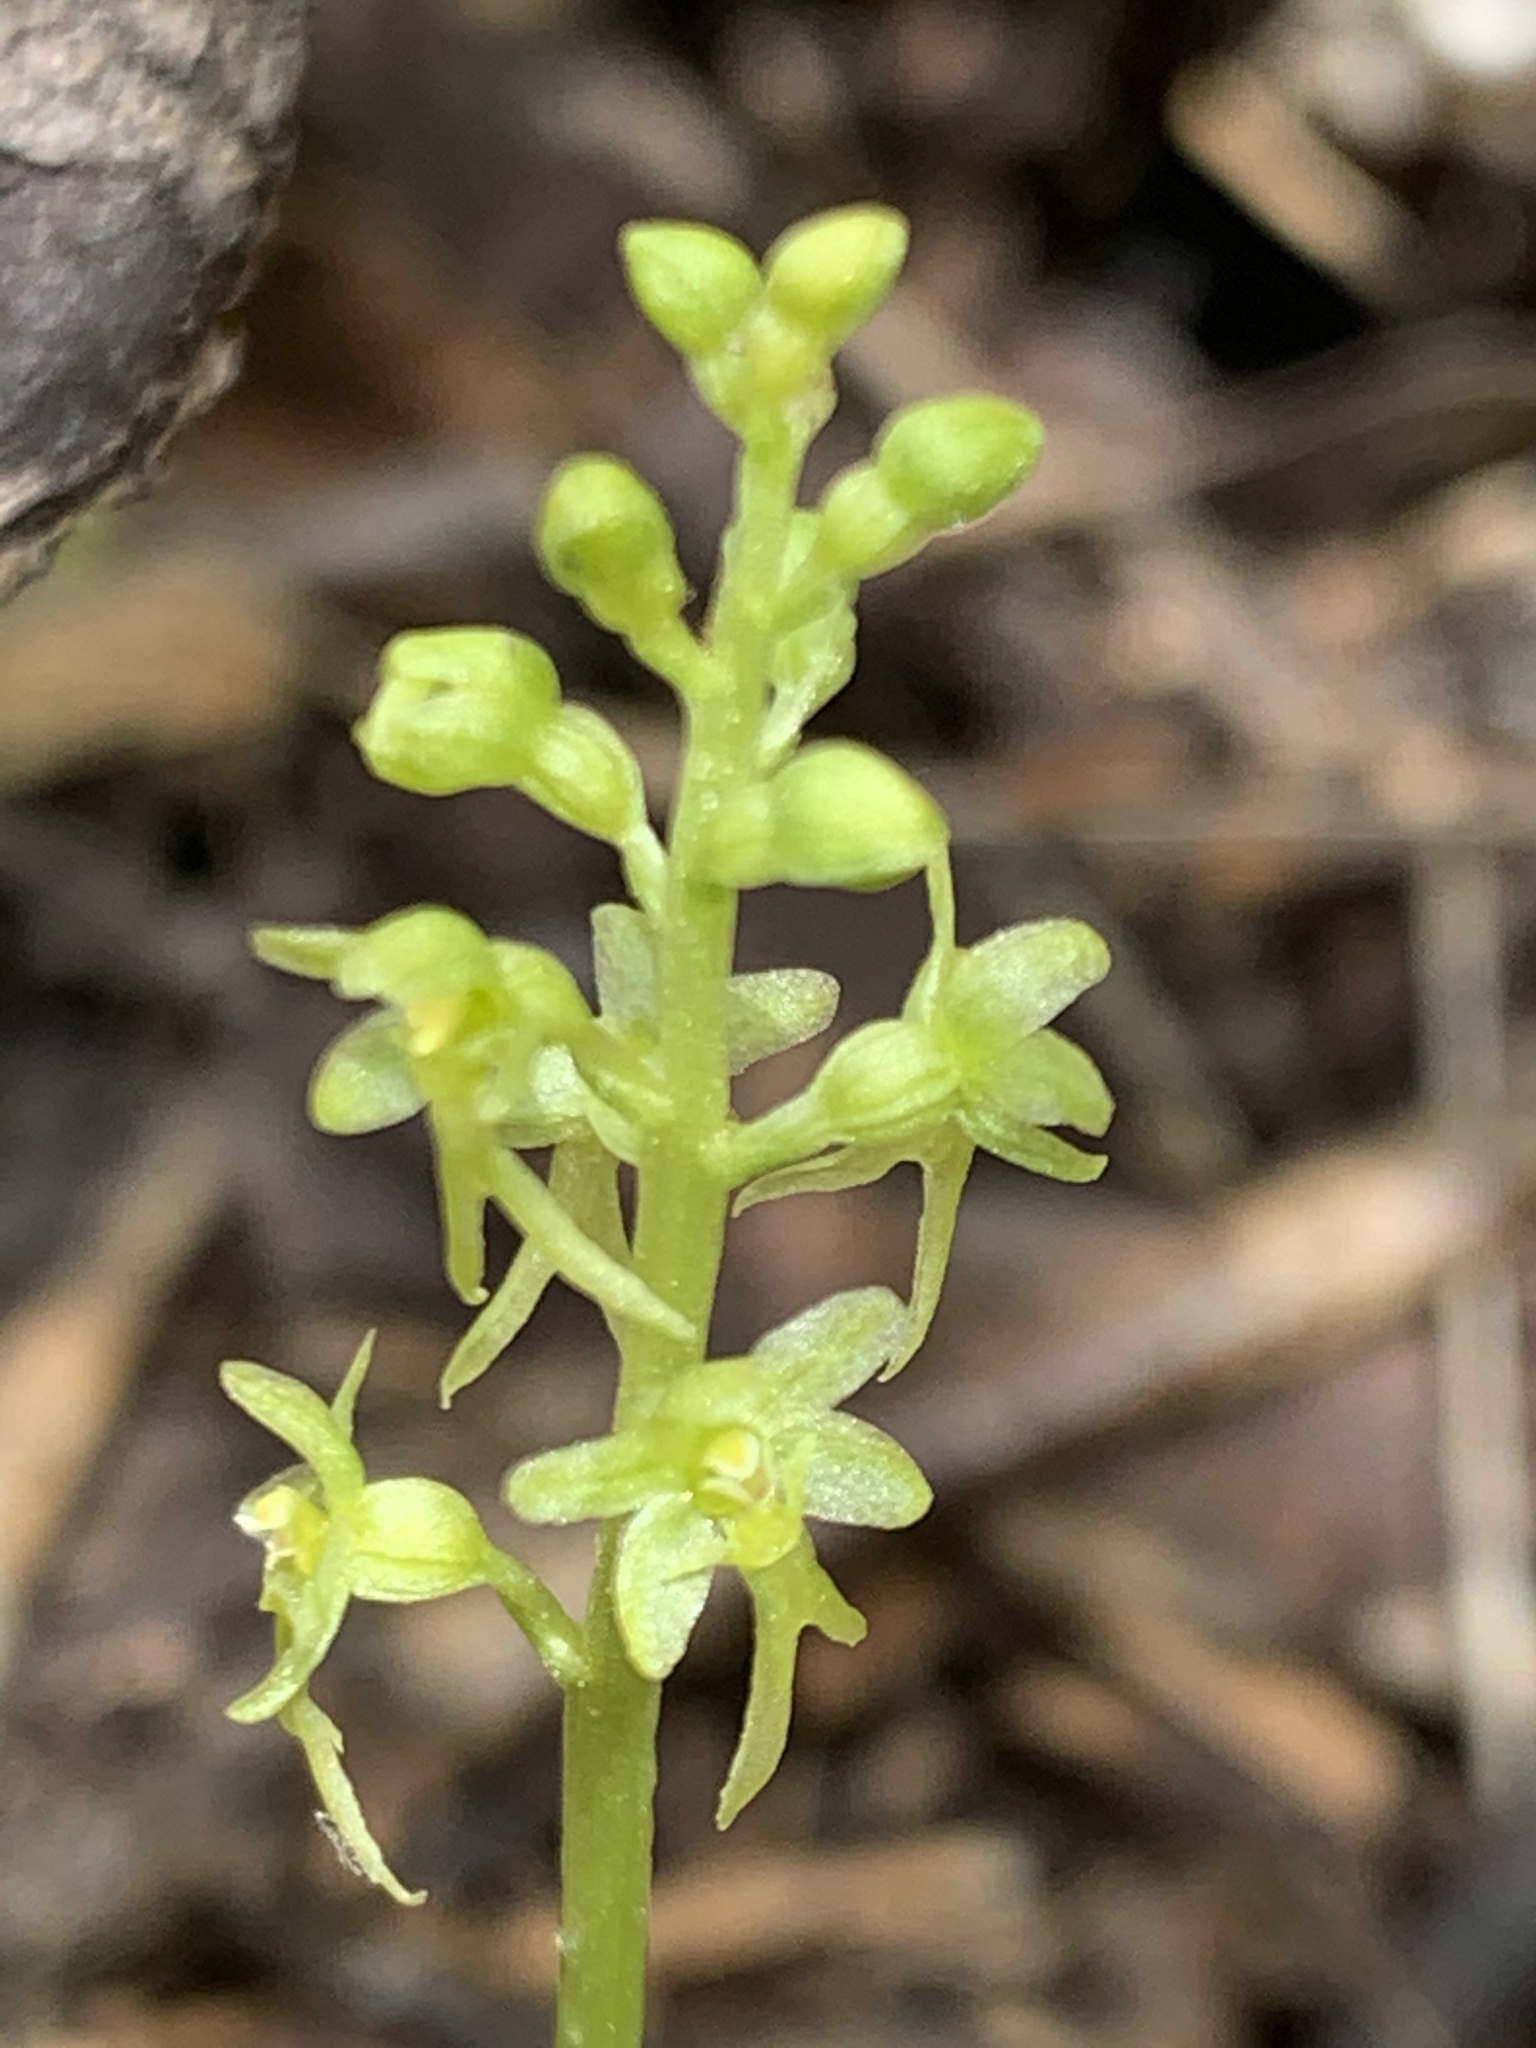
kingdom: Plantae
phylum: Tracheophyta
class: Liliopsida
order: Asparagales
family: Orchidaceae
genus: Neottia
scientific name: Neottia cordata
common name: Lesser twayblade
